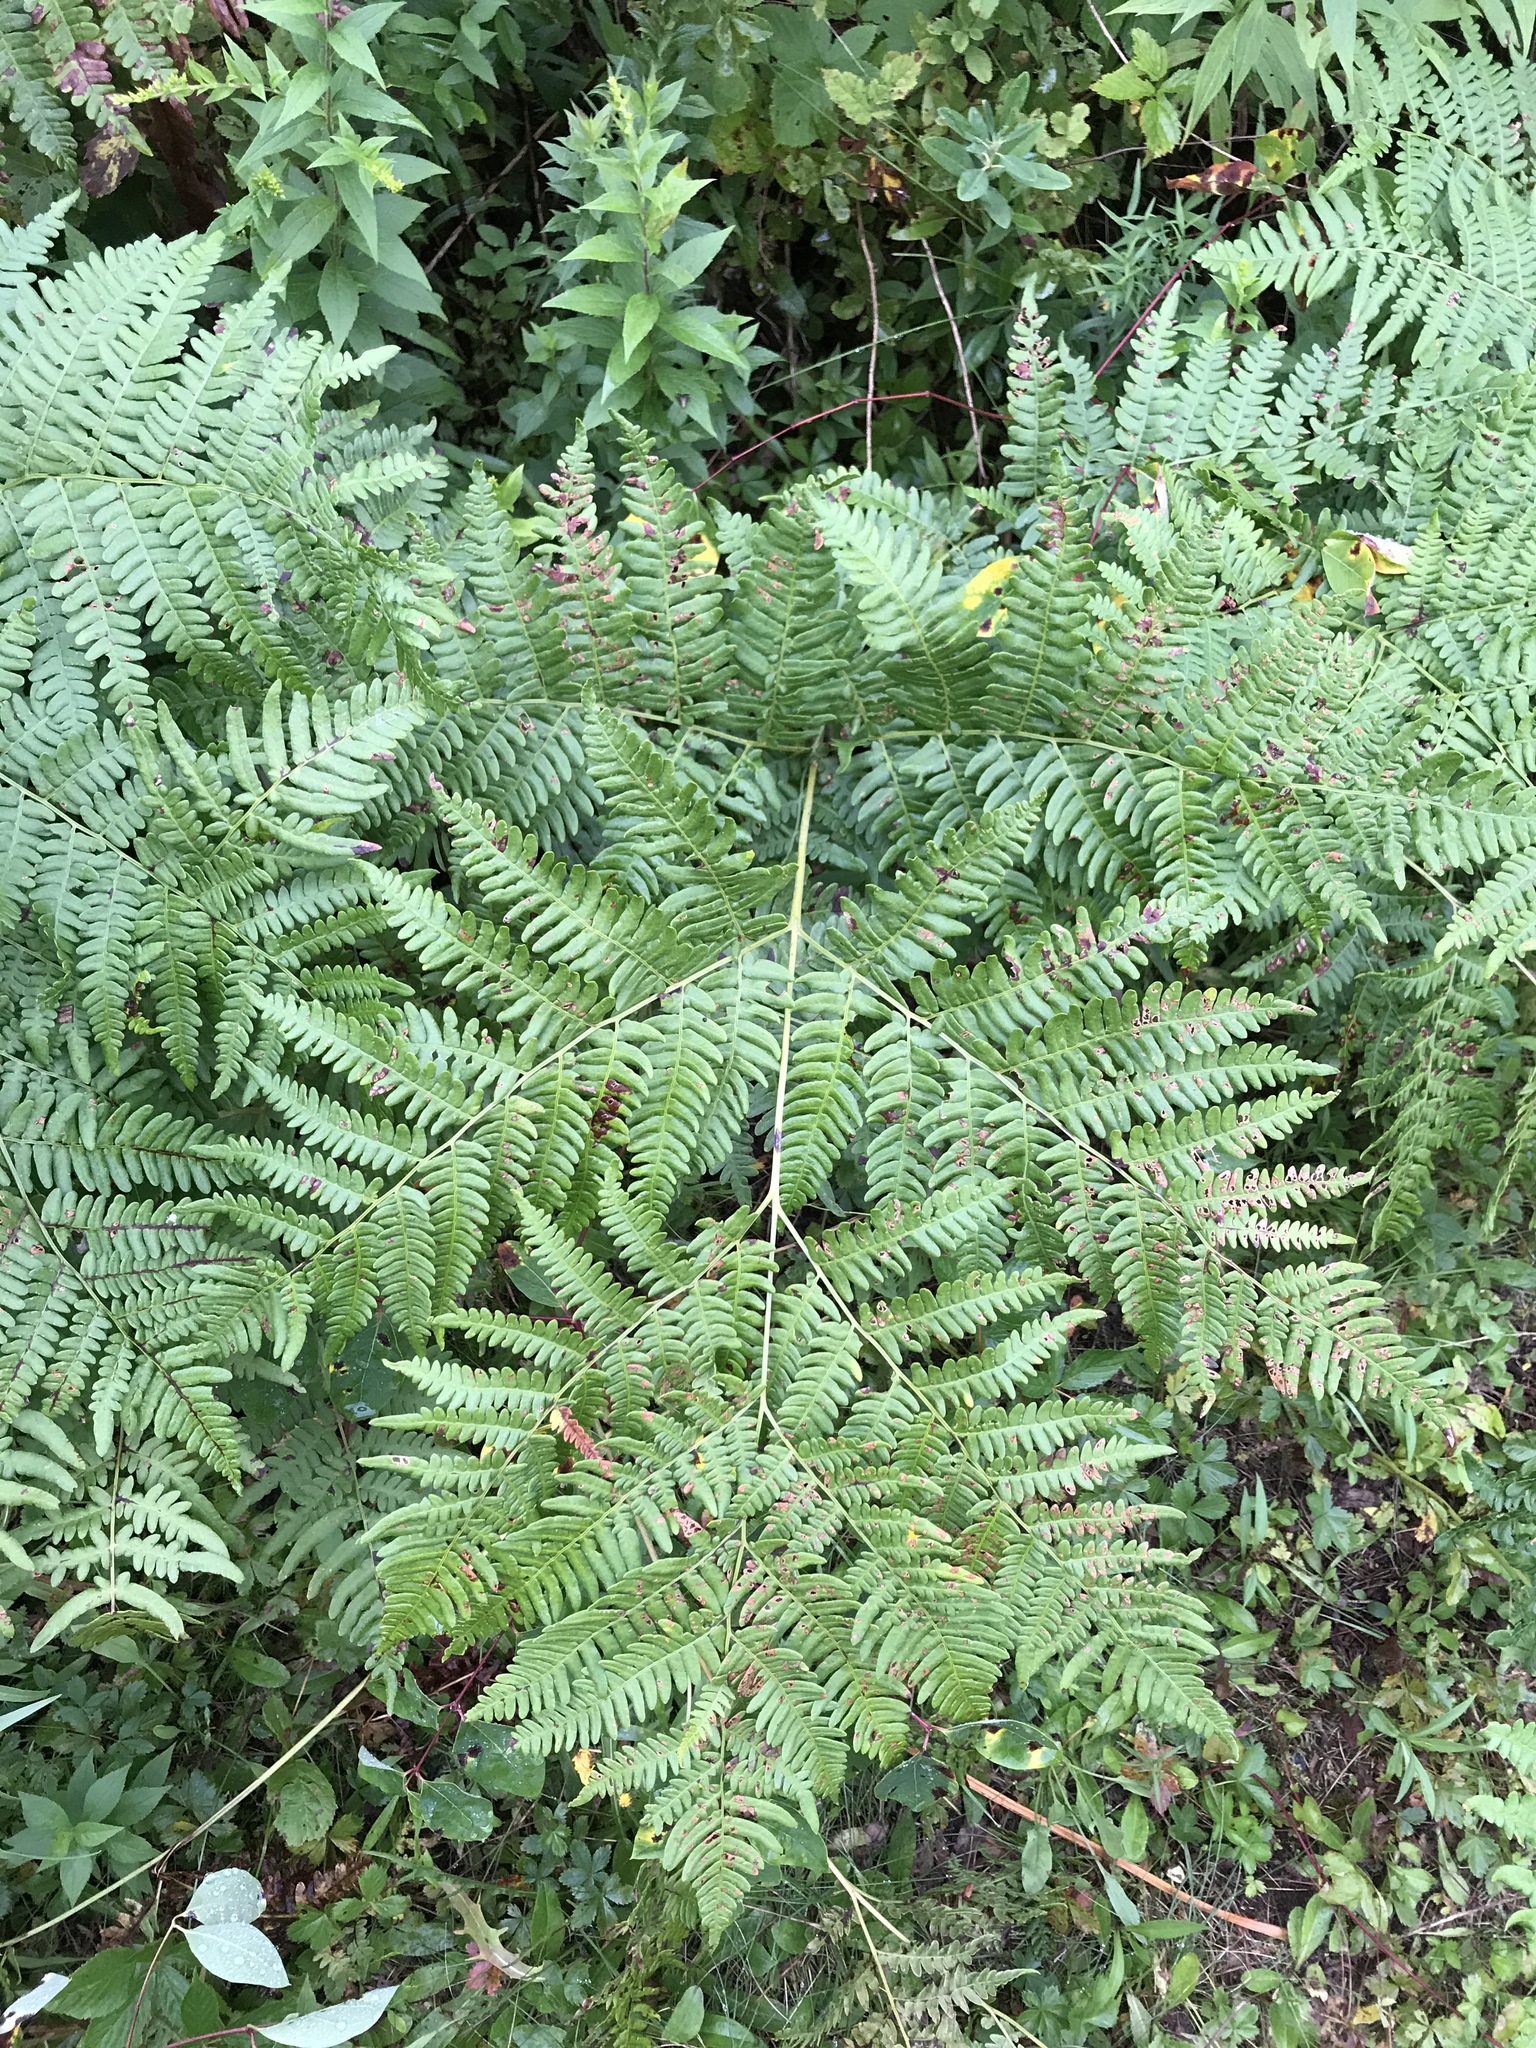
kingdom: Plantae
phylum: Tracheophyta
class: Polypodiopsida
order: Polypodiales
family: Dennstaedtiaceae
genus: Pteridium
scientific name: Pteridium aquilinum
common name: Bracken
